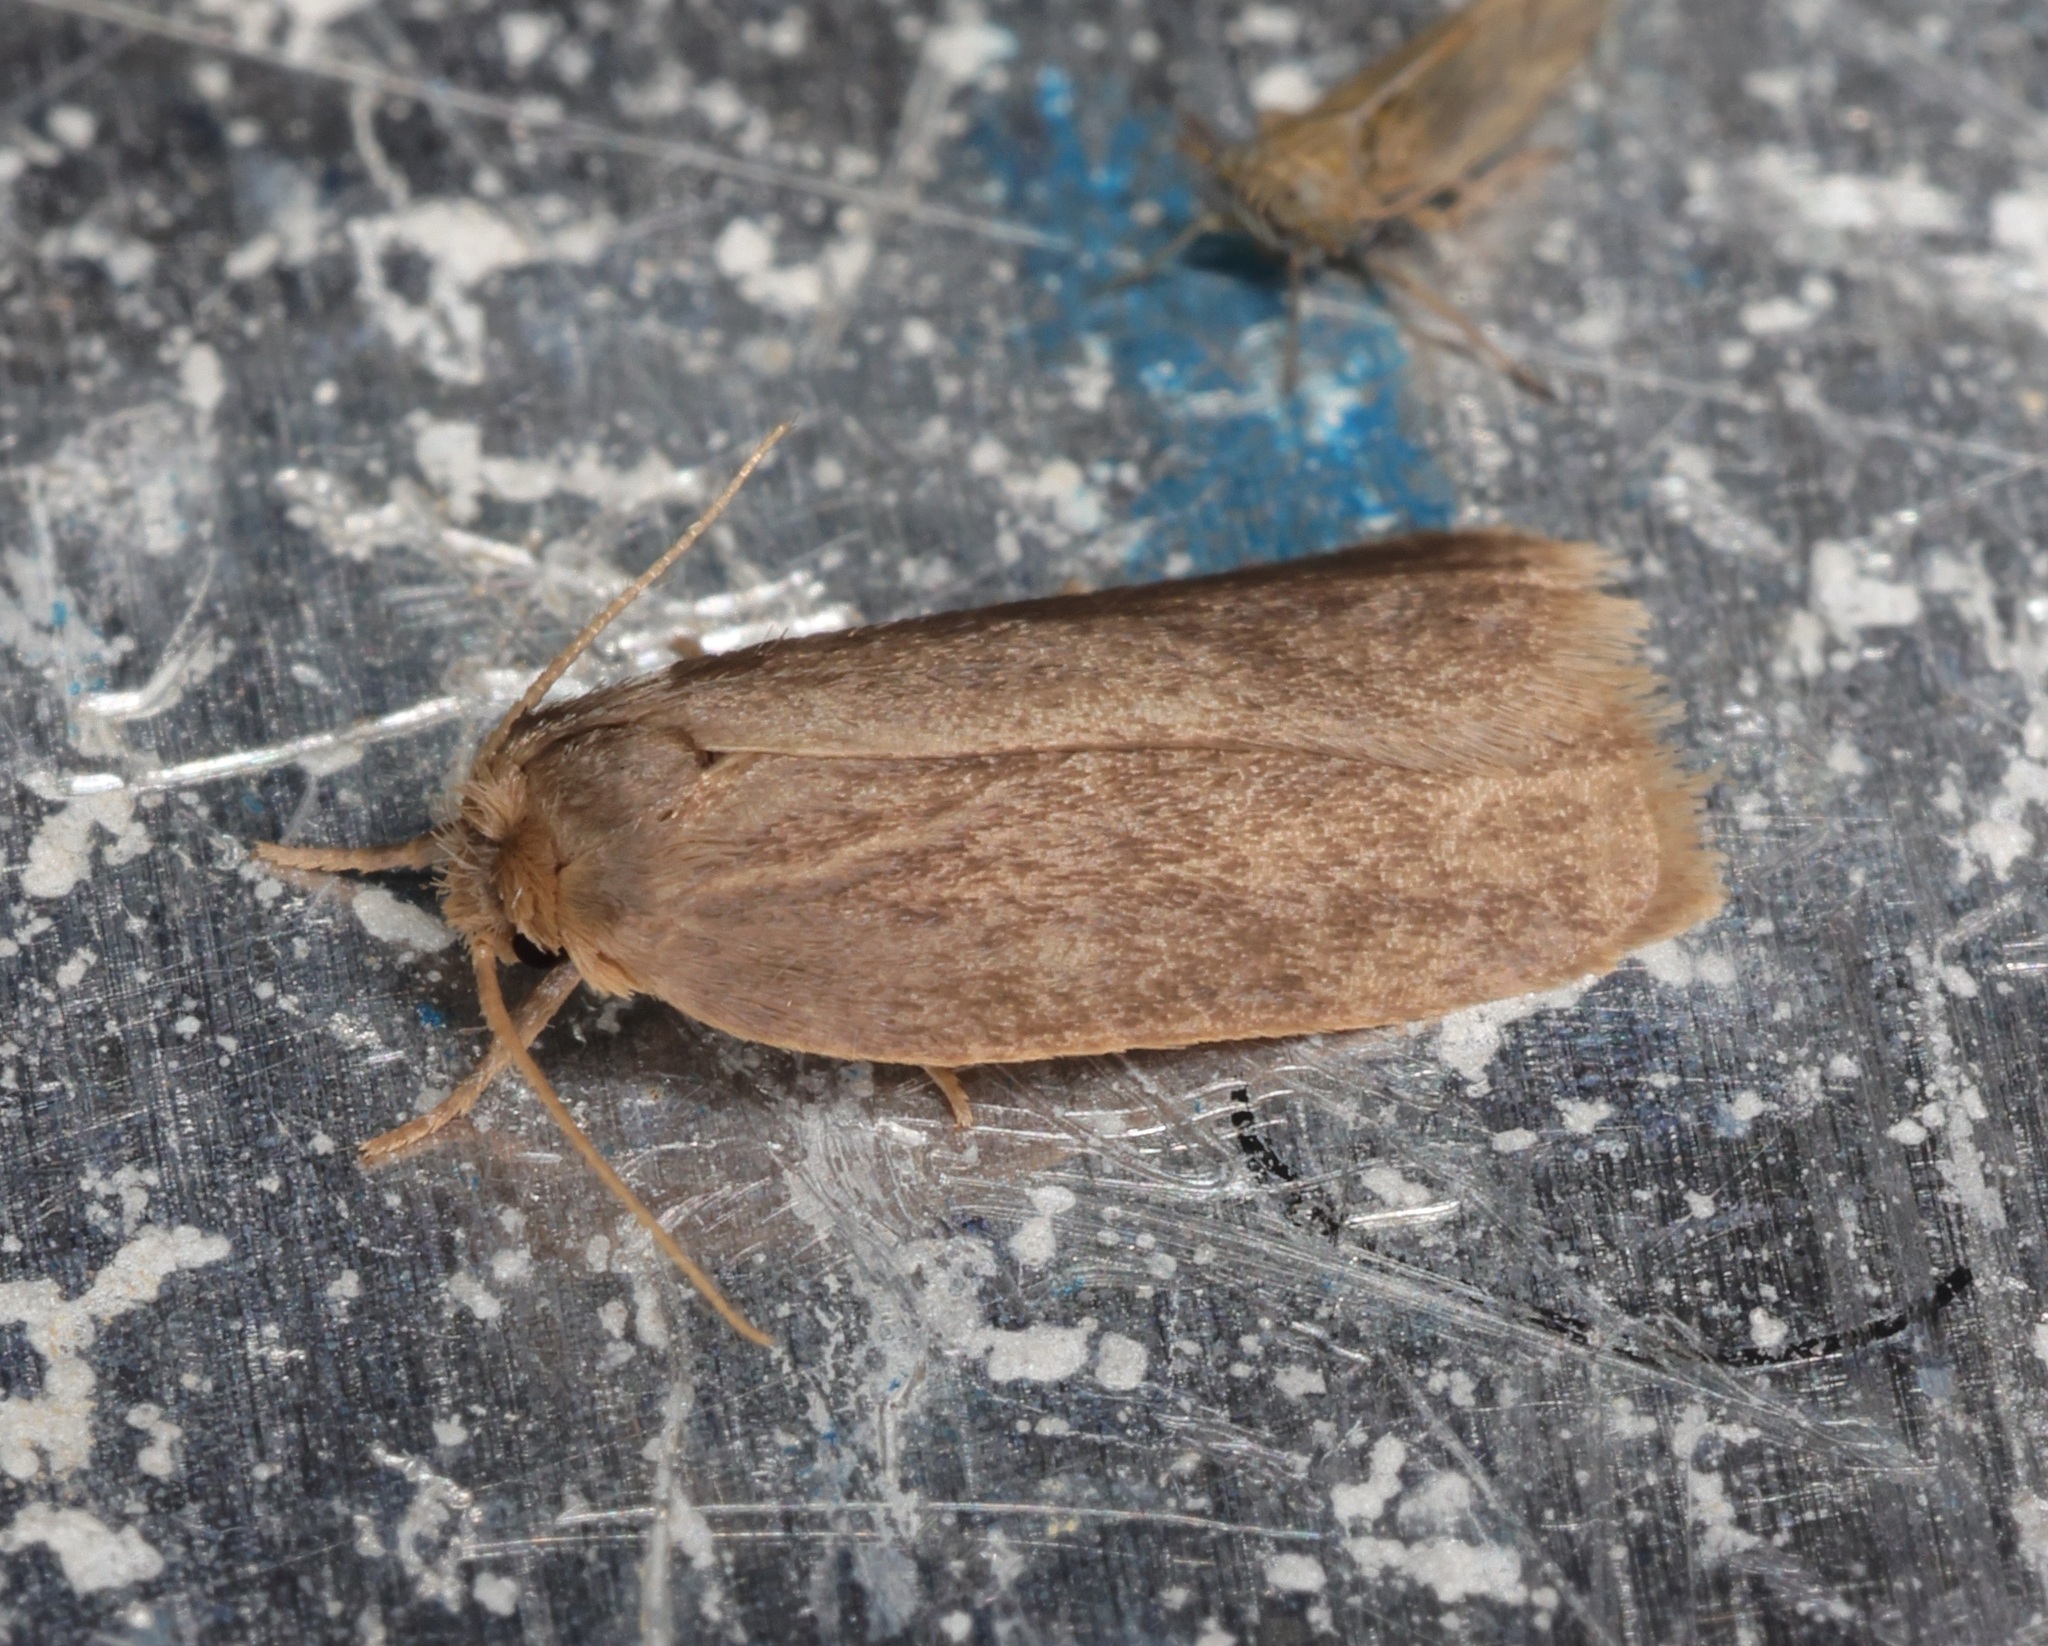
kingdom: Animalia
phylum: Arthropoda
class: Insecta
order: Lepidoptera
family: Erebidae
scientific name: Erebidae
